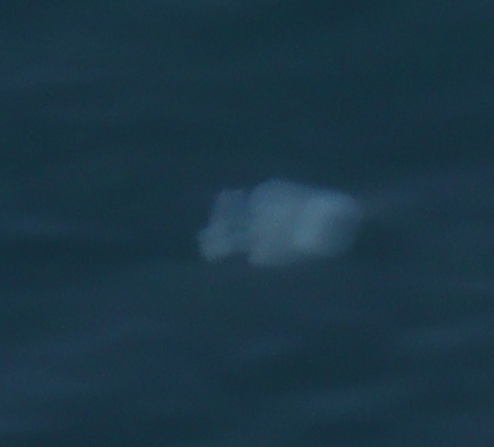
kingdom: Animalia
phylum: Cnidaria
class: Scyphozoa
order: Rhizostomeae
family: Rhizostomatidae
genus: Rhopilema
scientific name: Rhopilema nomadica
